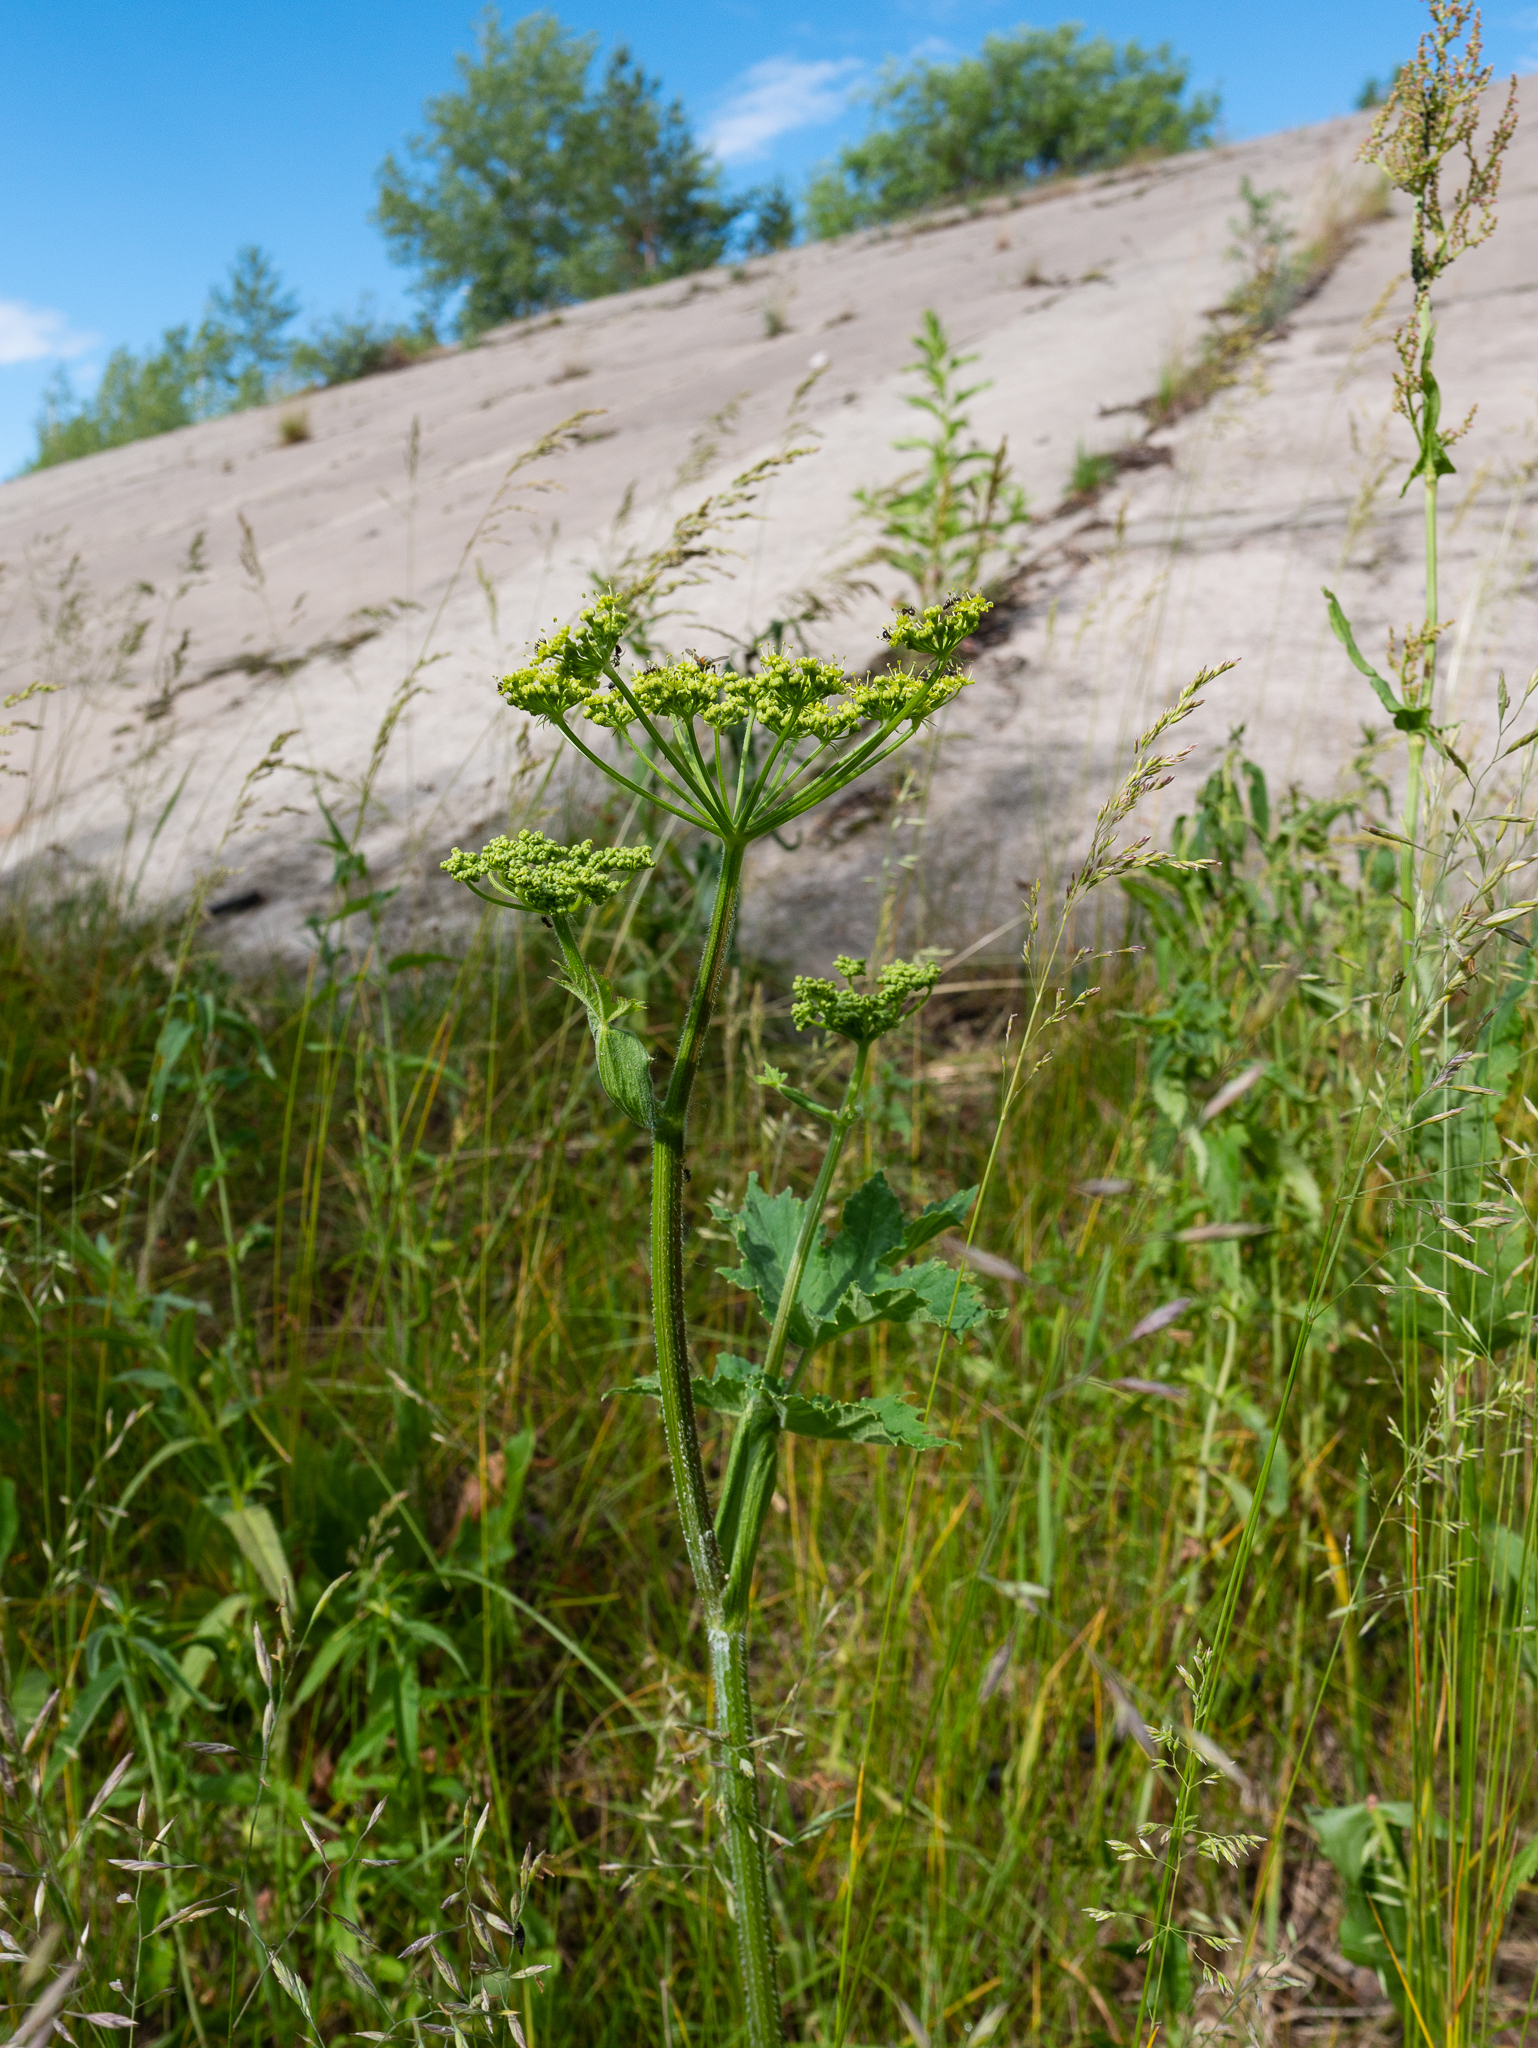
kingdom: Plantae
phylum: Tracheophyta
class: Magnoliopsida
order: Apiales
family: Apiaceae
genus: Pastinaca
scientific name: Pastinaca sativa
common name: Wild parsnip
